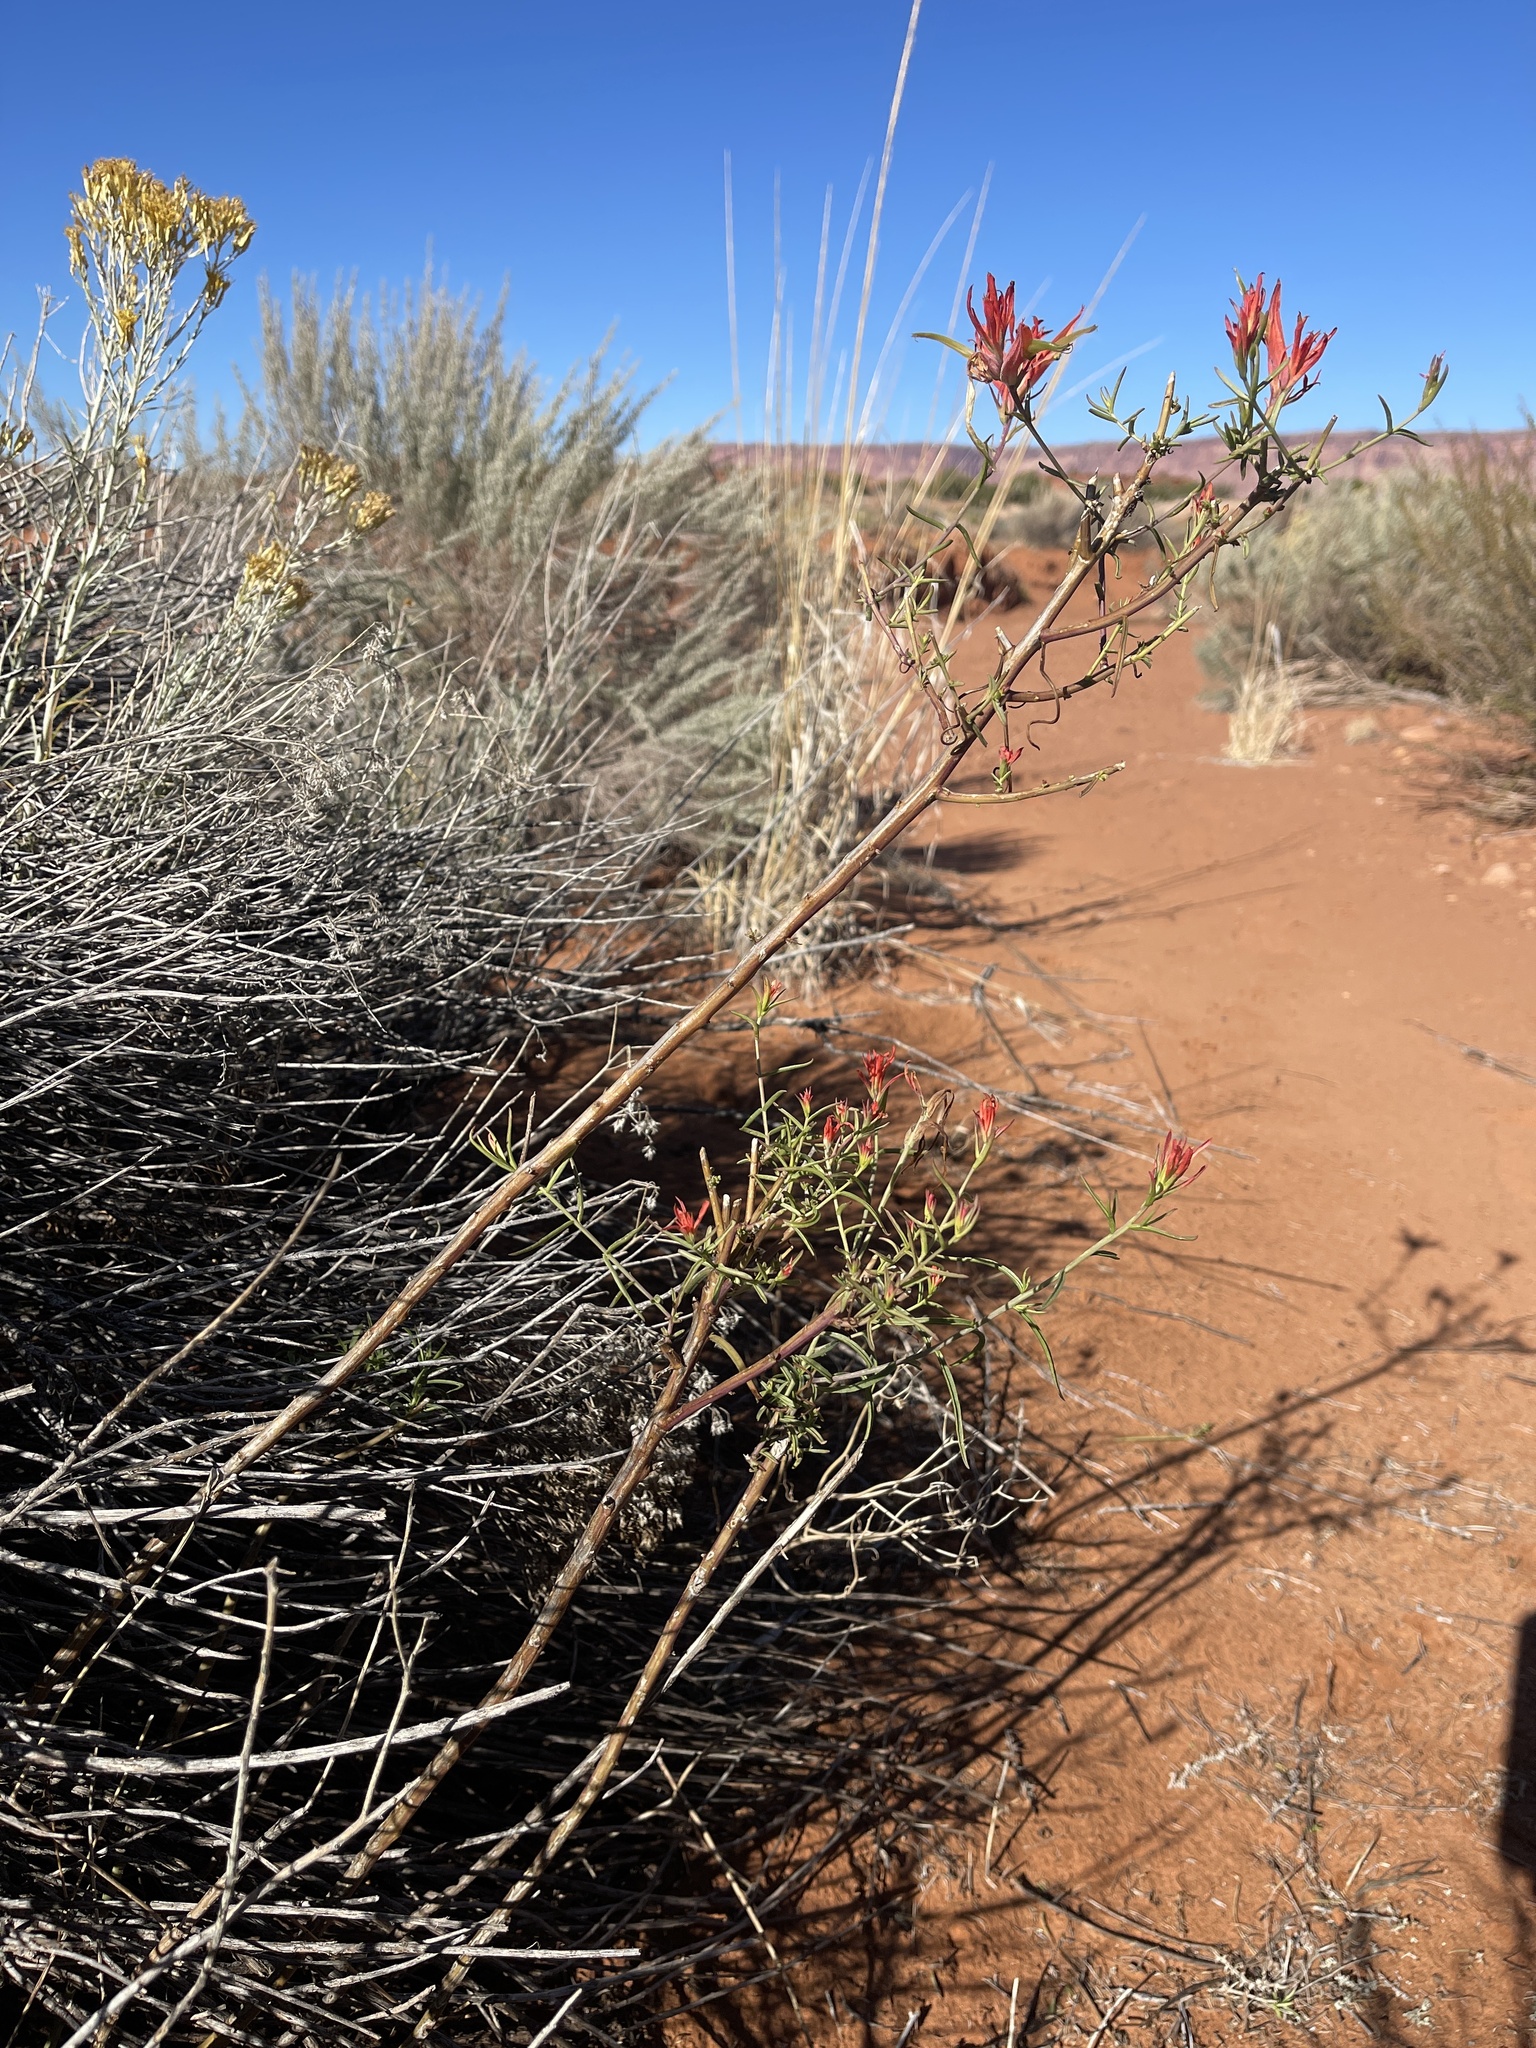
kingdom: Plantae
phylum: Tracheophyta
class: Magnoliopsida
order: Lamiales
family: Orobanchaceae
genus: Castilleja
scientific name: Castilleja linariifolia
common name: Wyoming paintbrush
